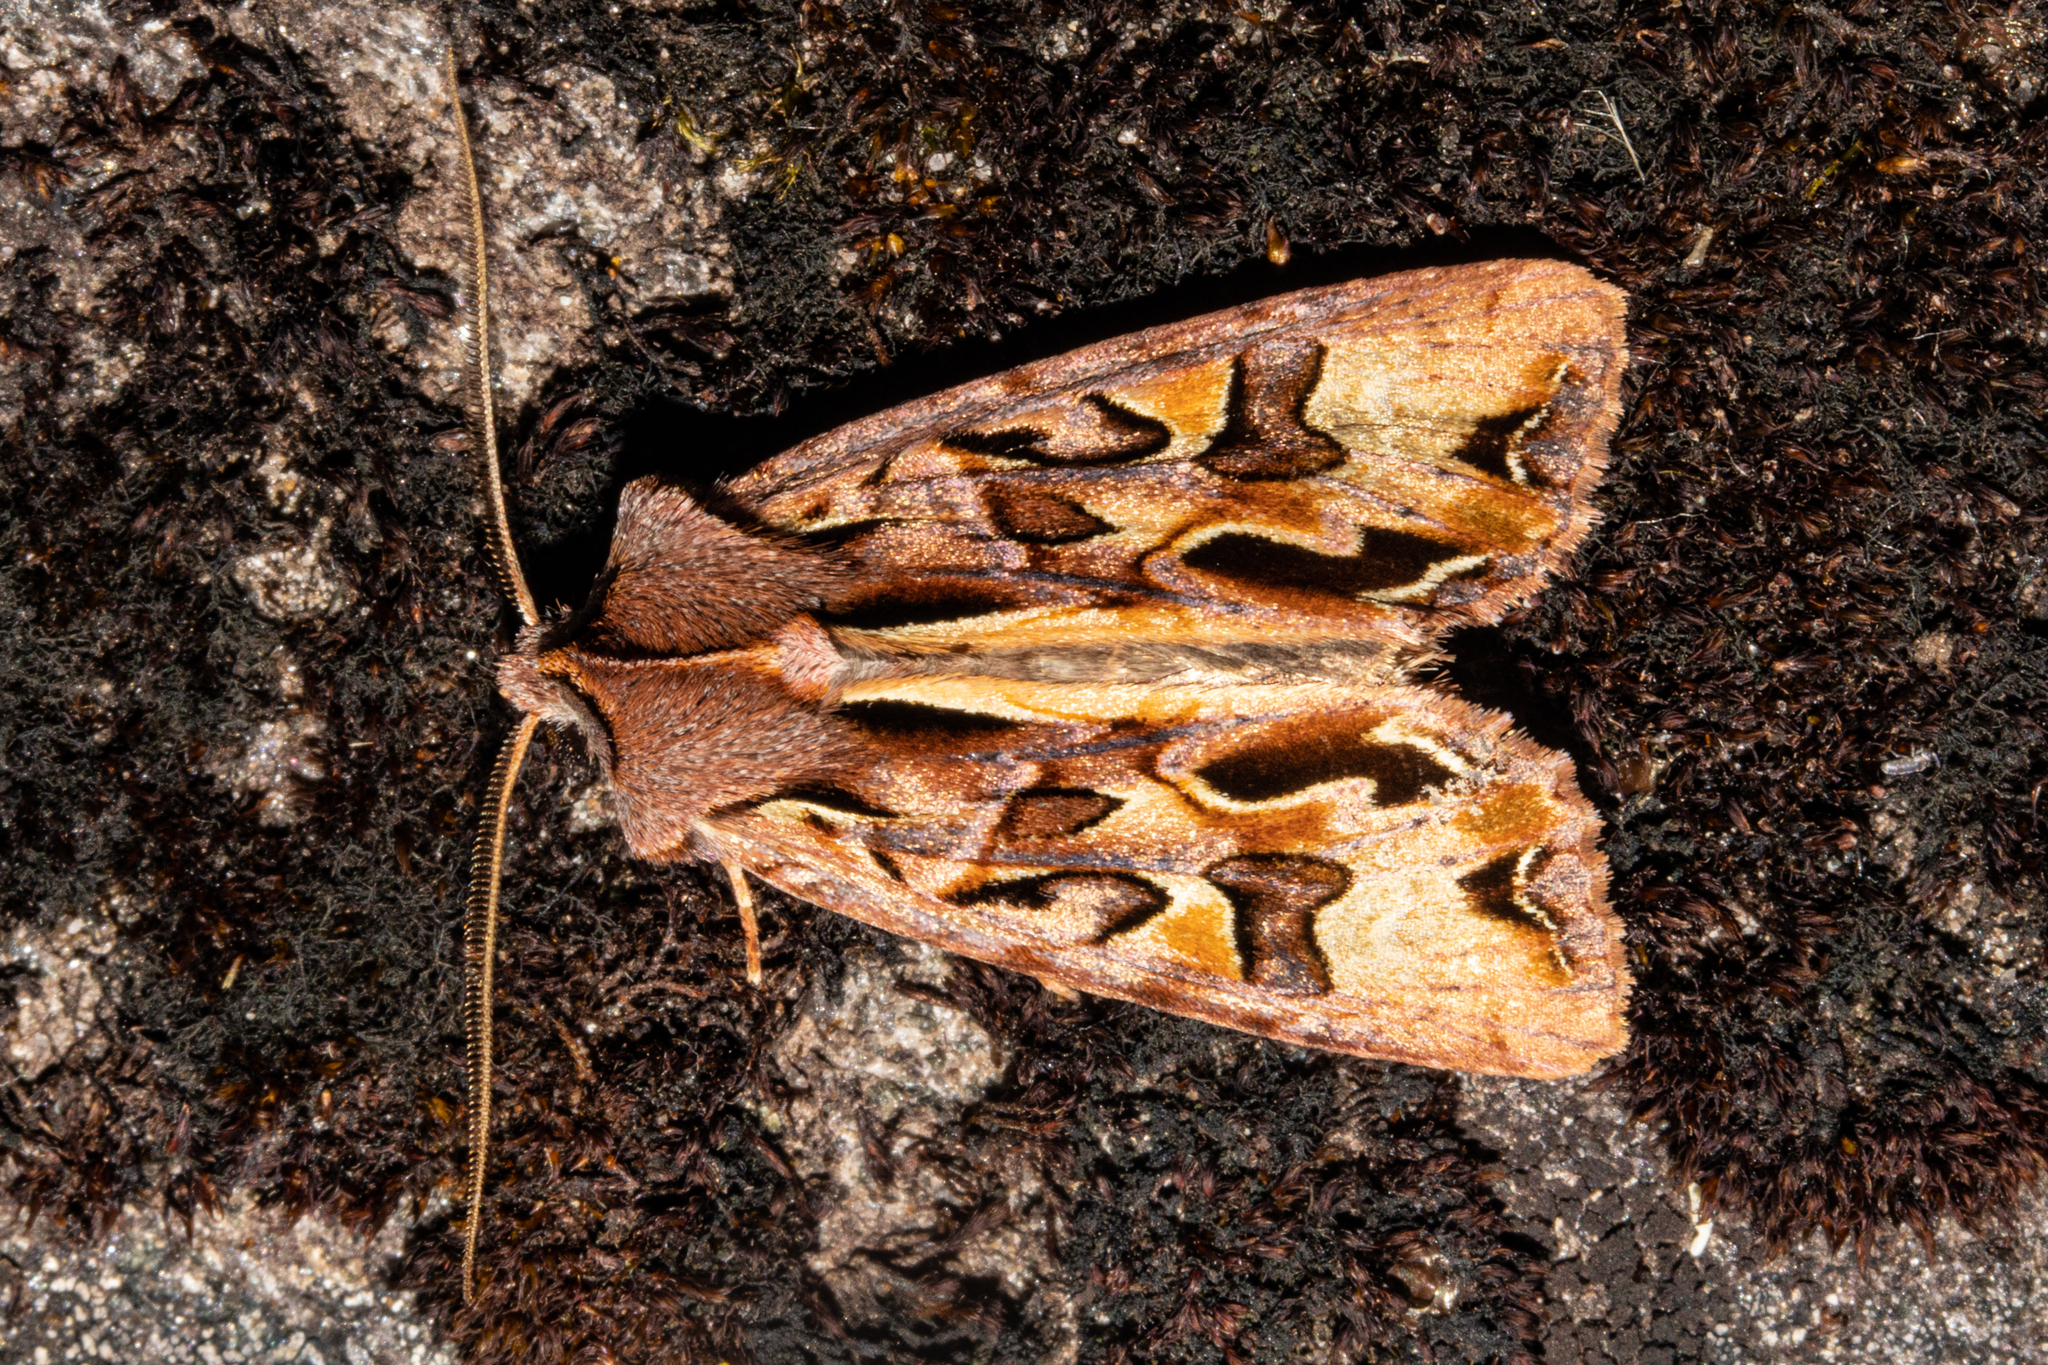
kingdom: Animalia
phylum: Arthropoda
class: Insecta
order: Lepidoptera
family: Noctuidae
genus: Ichneutica
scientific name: Ichneutica
